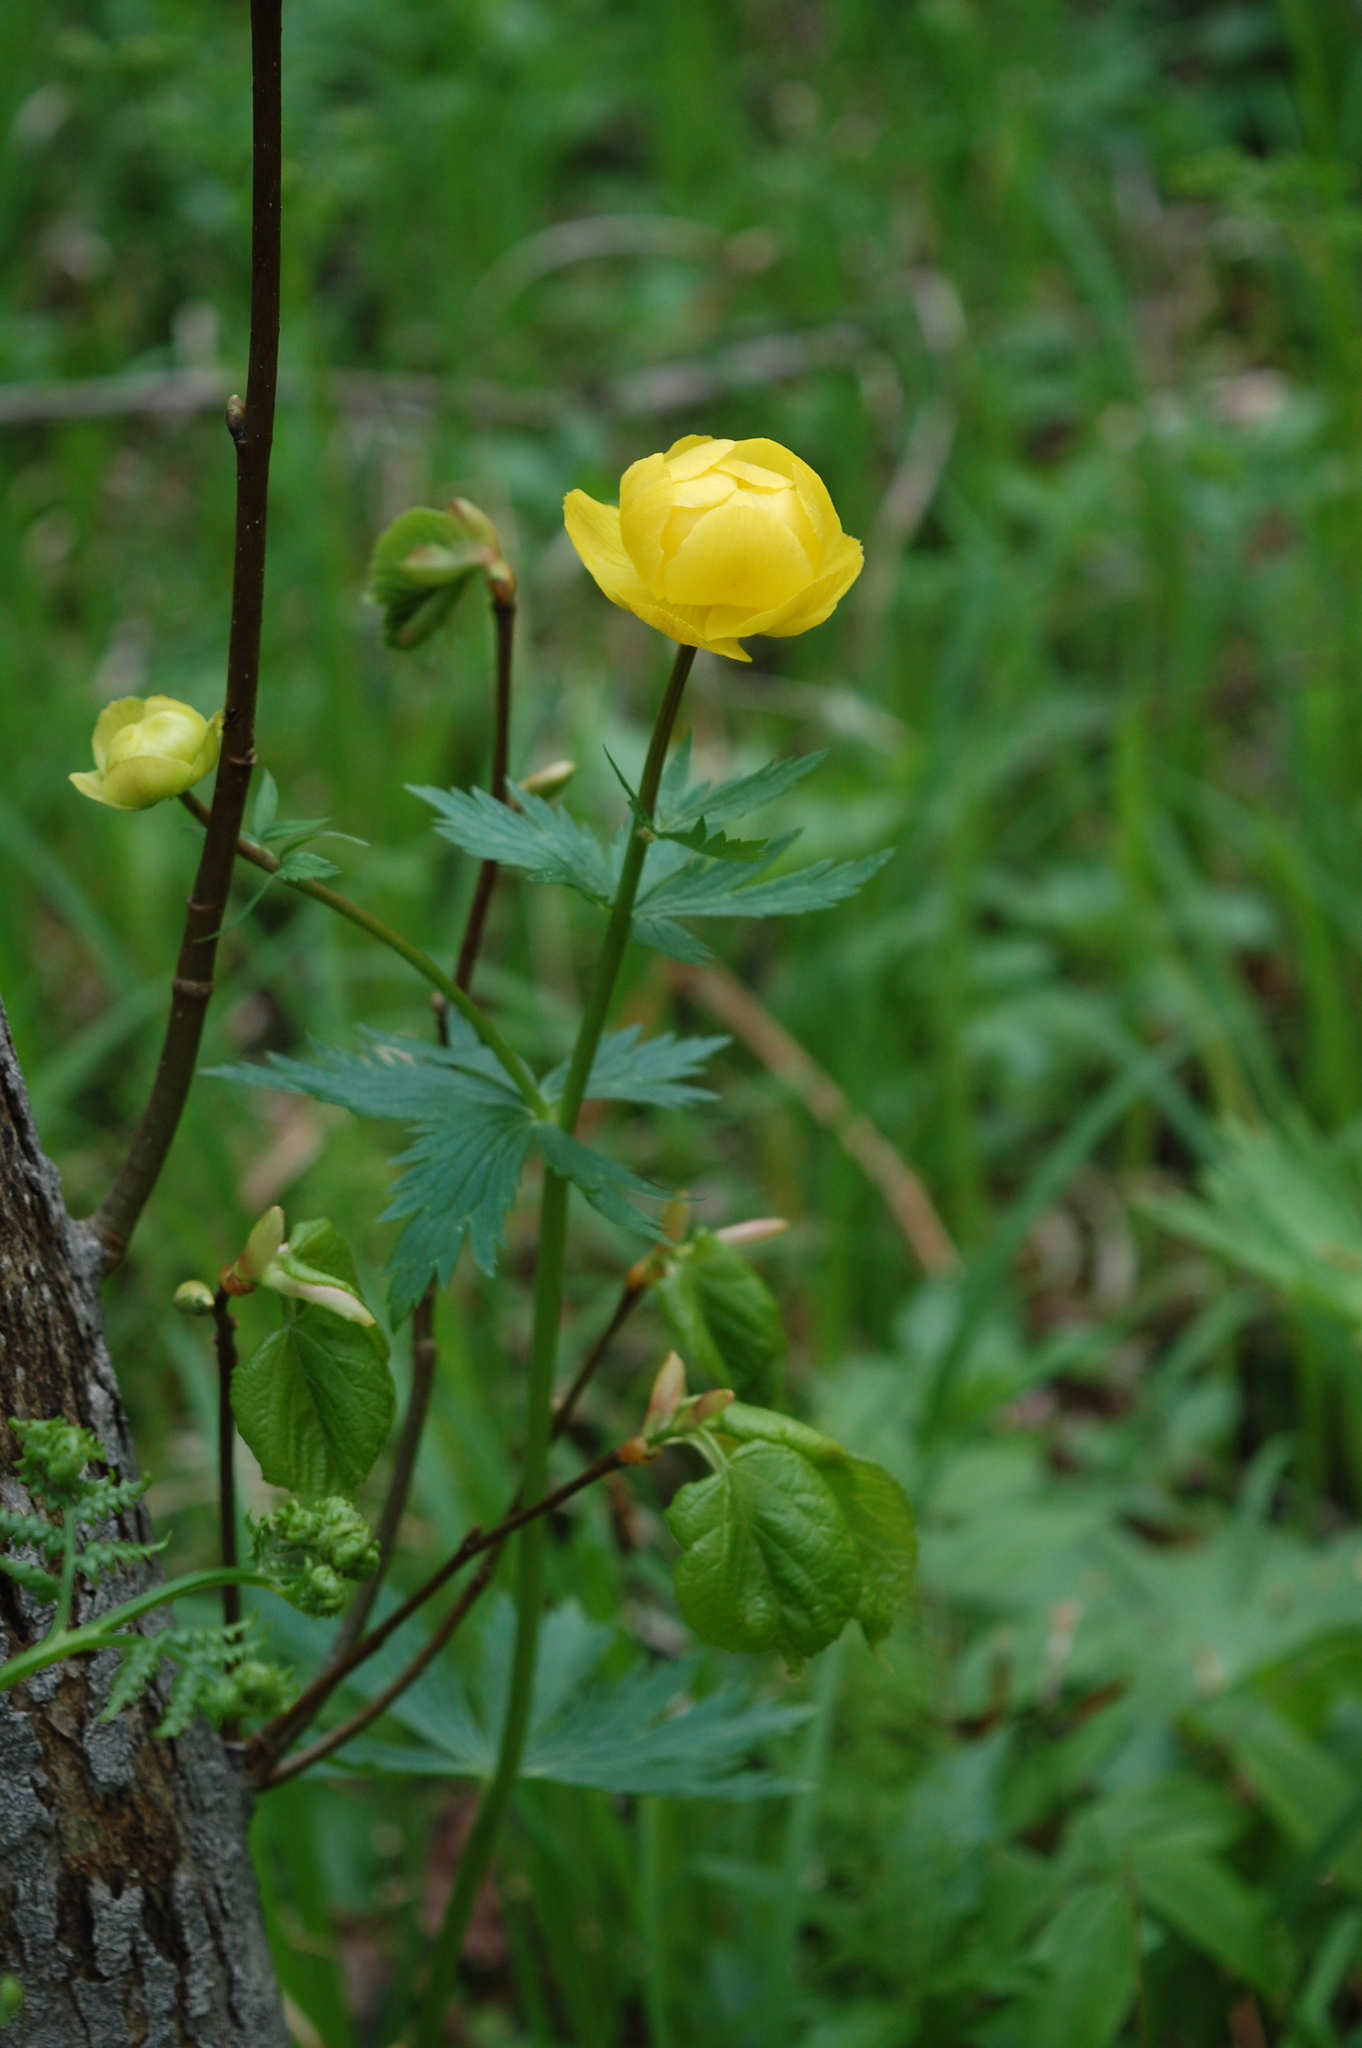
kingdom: Plantae
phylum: Tracheophyta
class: Magnoliopsida
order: Ranunculales
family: Ranunculaceae
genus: Trollius
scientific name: Trollius europaeus
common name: European globeflower
